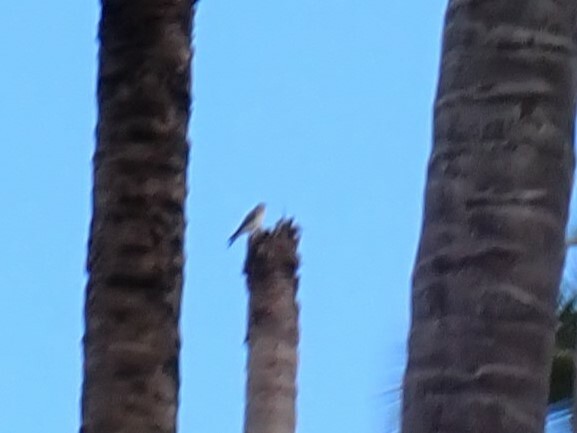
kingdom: Animalia
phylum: Chordata
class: Aves
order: Falconiformes
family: Falconidae
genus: Falco
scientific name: Falco sparverius
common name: American kestrel
